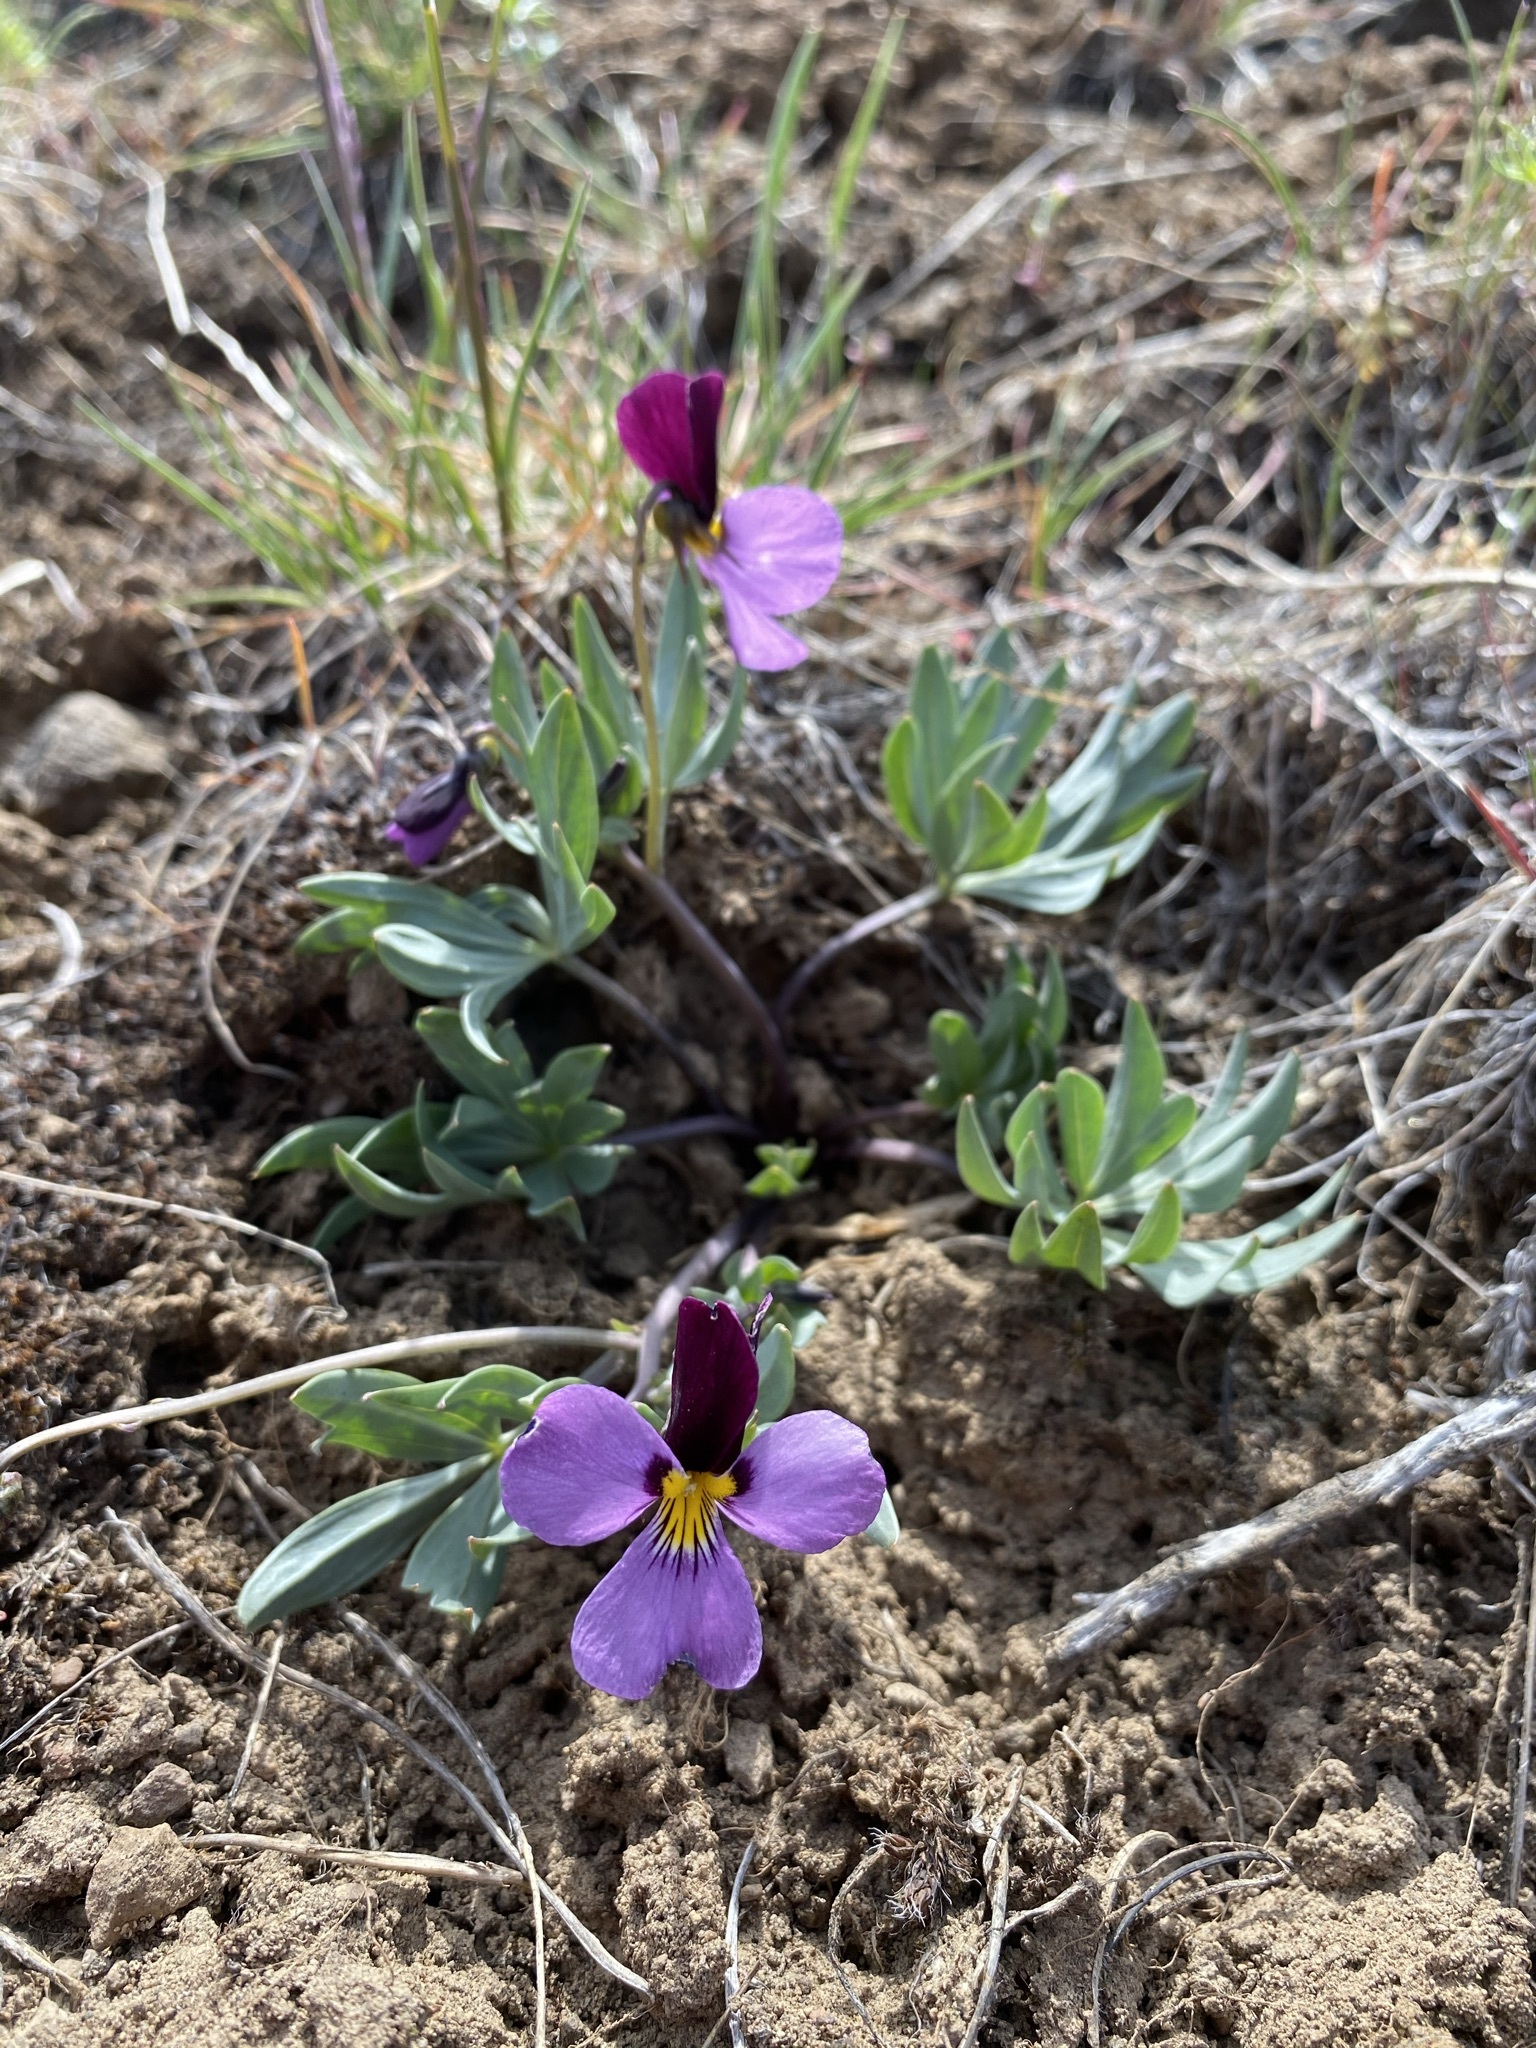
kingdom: Plantae
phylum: Tracheophyta
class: Magnoliopsida
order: Malpighiales
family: Violaceae
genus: Viola
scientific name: Viola trinervata
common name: Sagebrush violet
